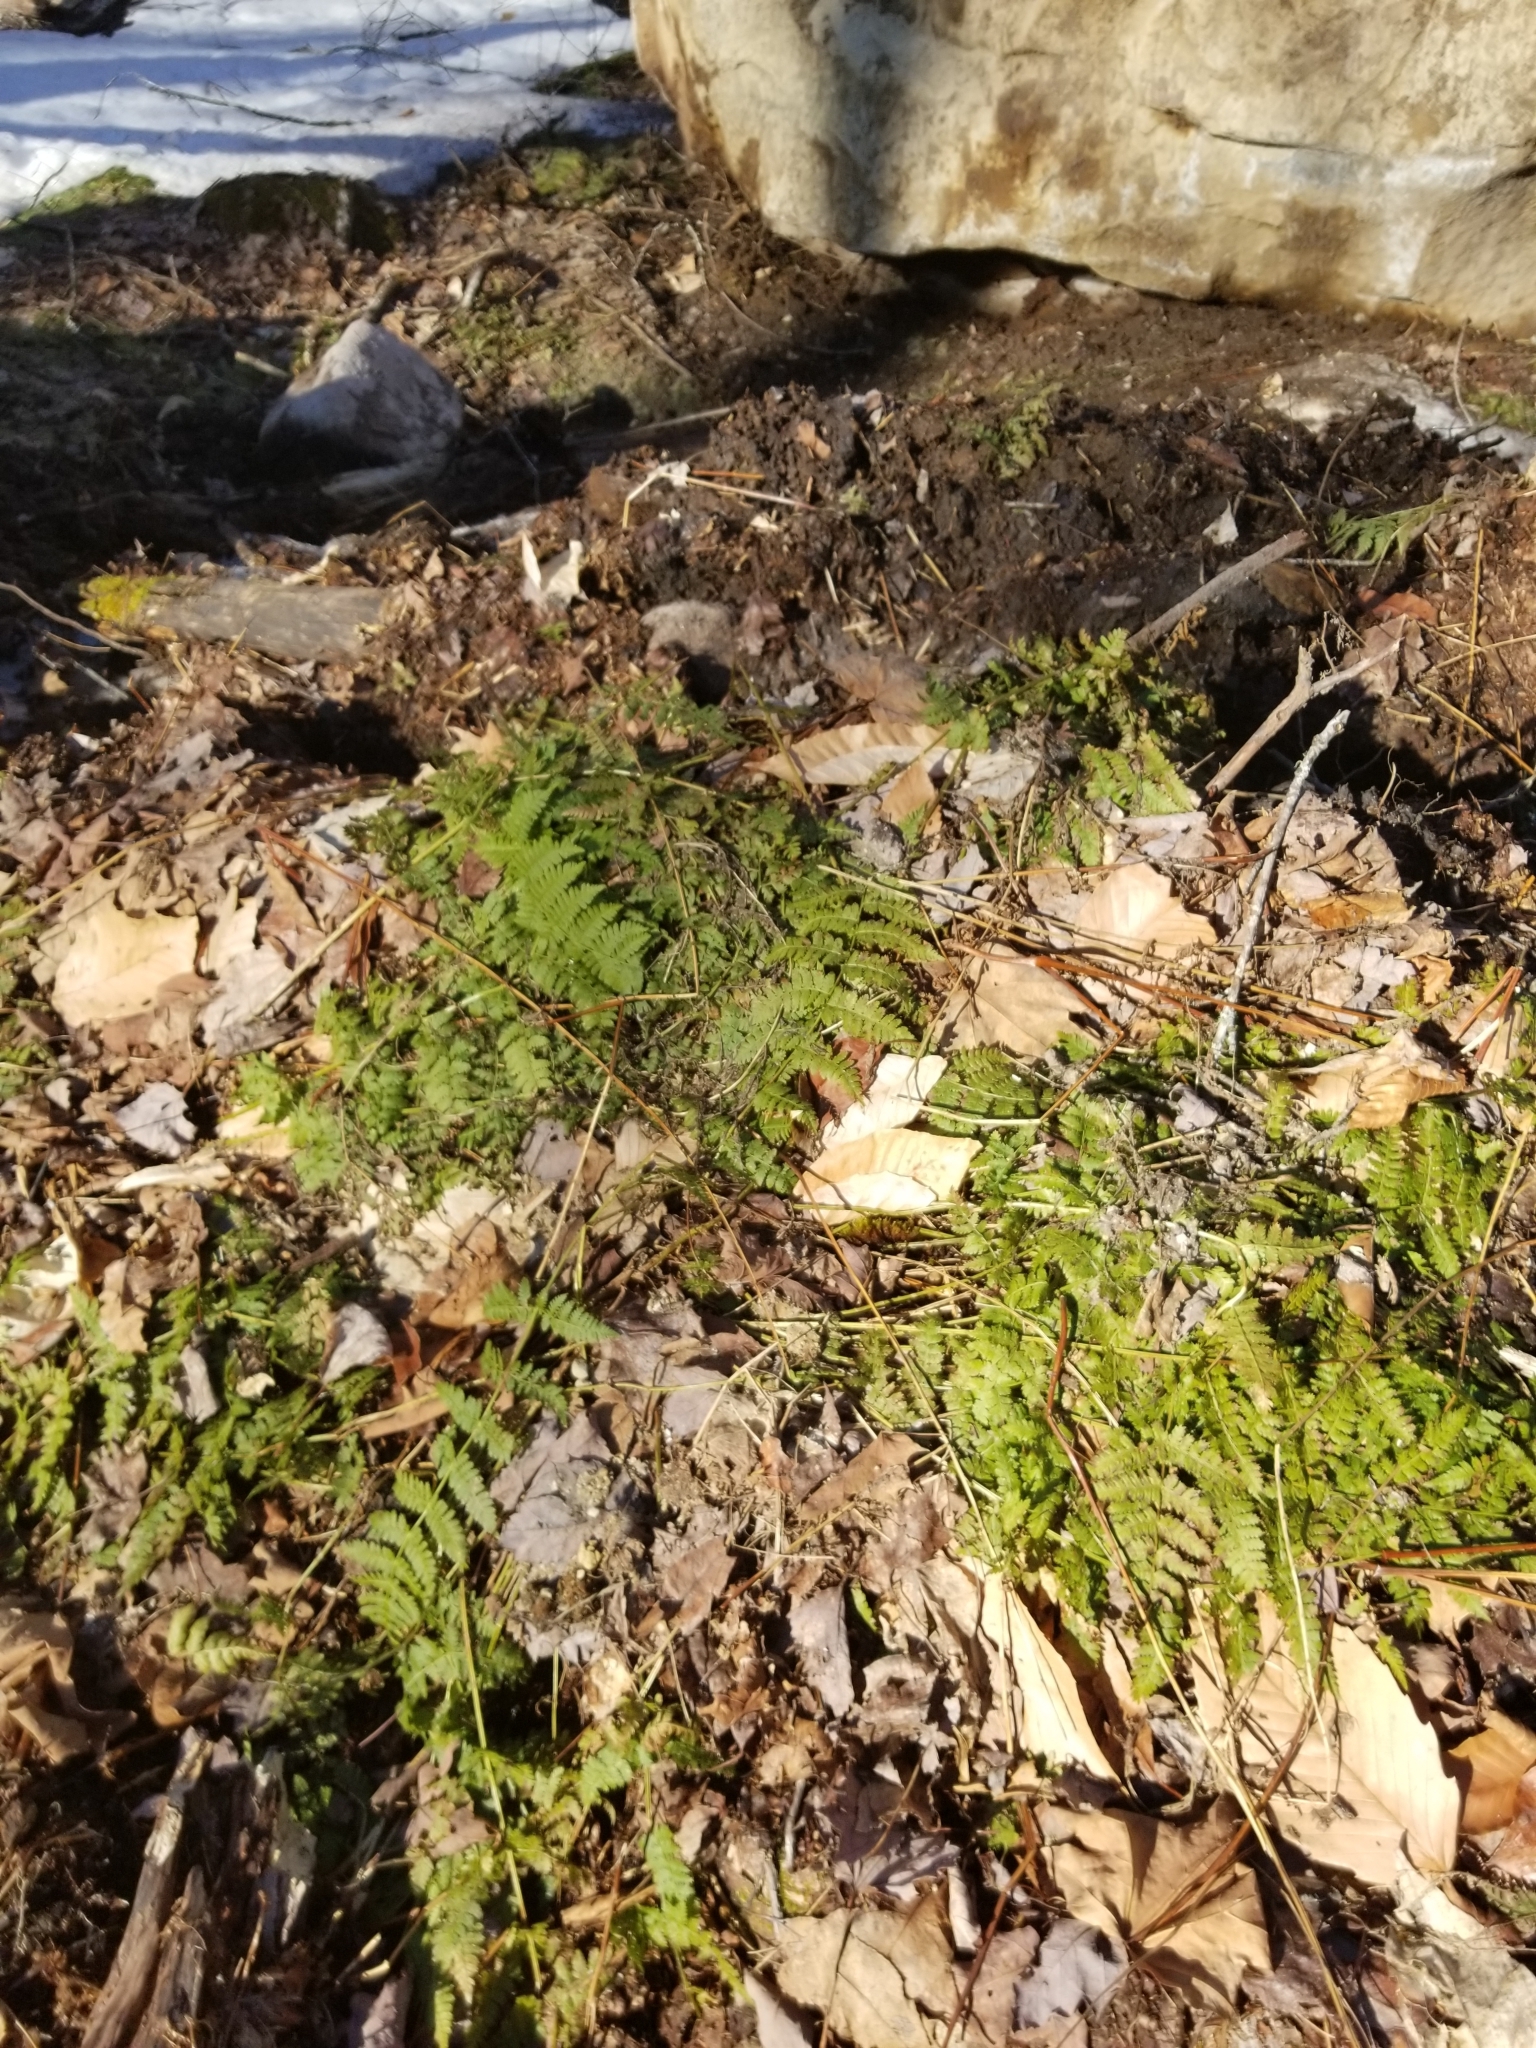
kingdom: Plantae
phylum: Tracheophyta
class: Polypodiopsida
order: Polypodiales
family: Dryopteridaceae
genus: Dryopteris
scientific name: Dryopteris intermedia
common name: Evergreen wood fern
